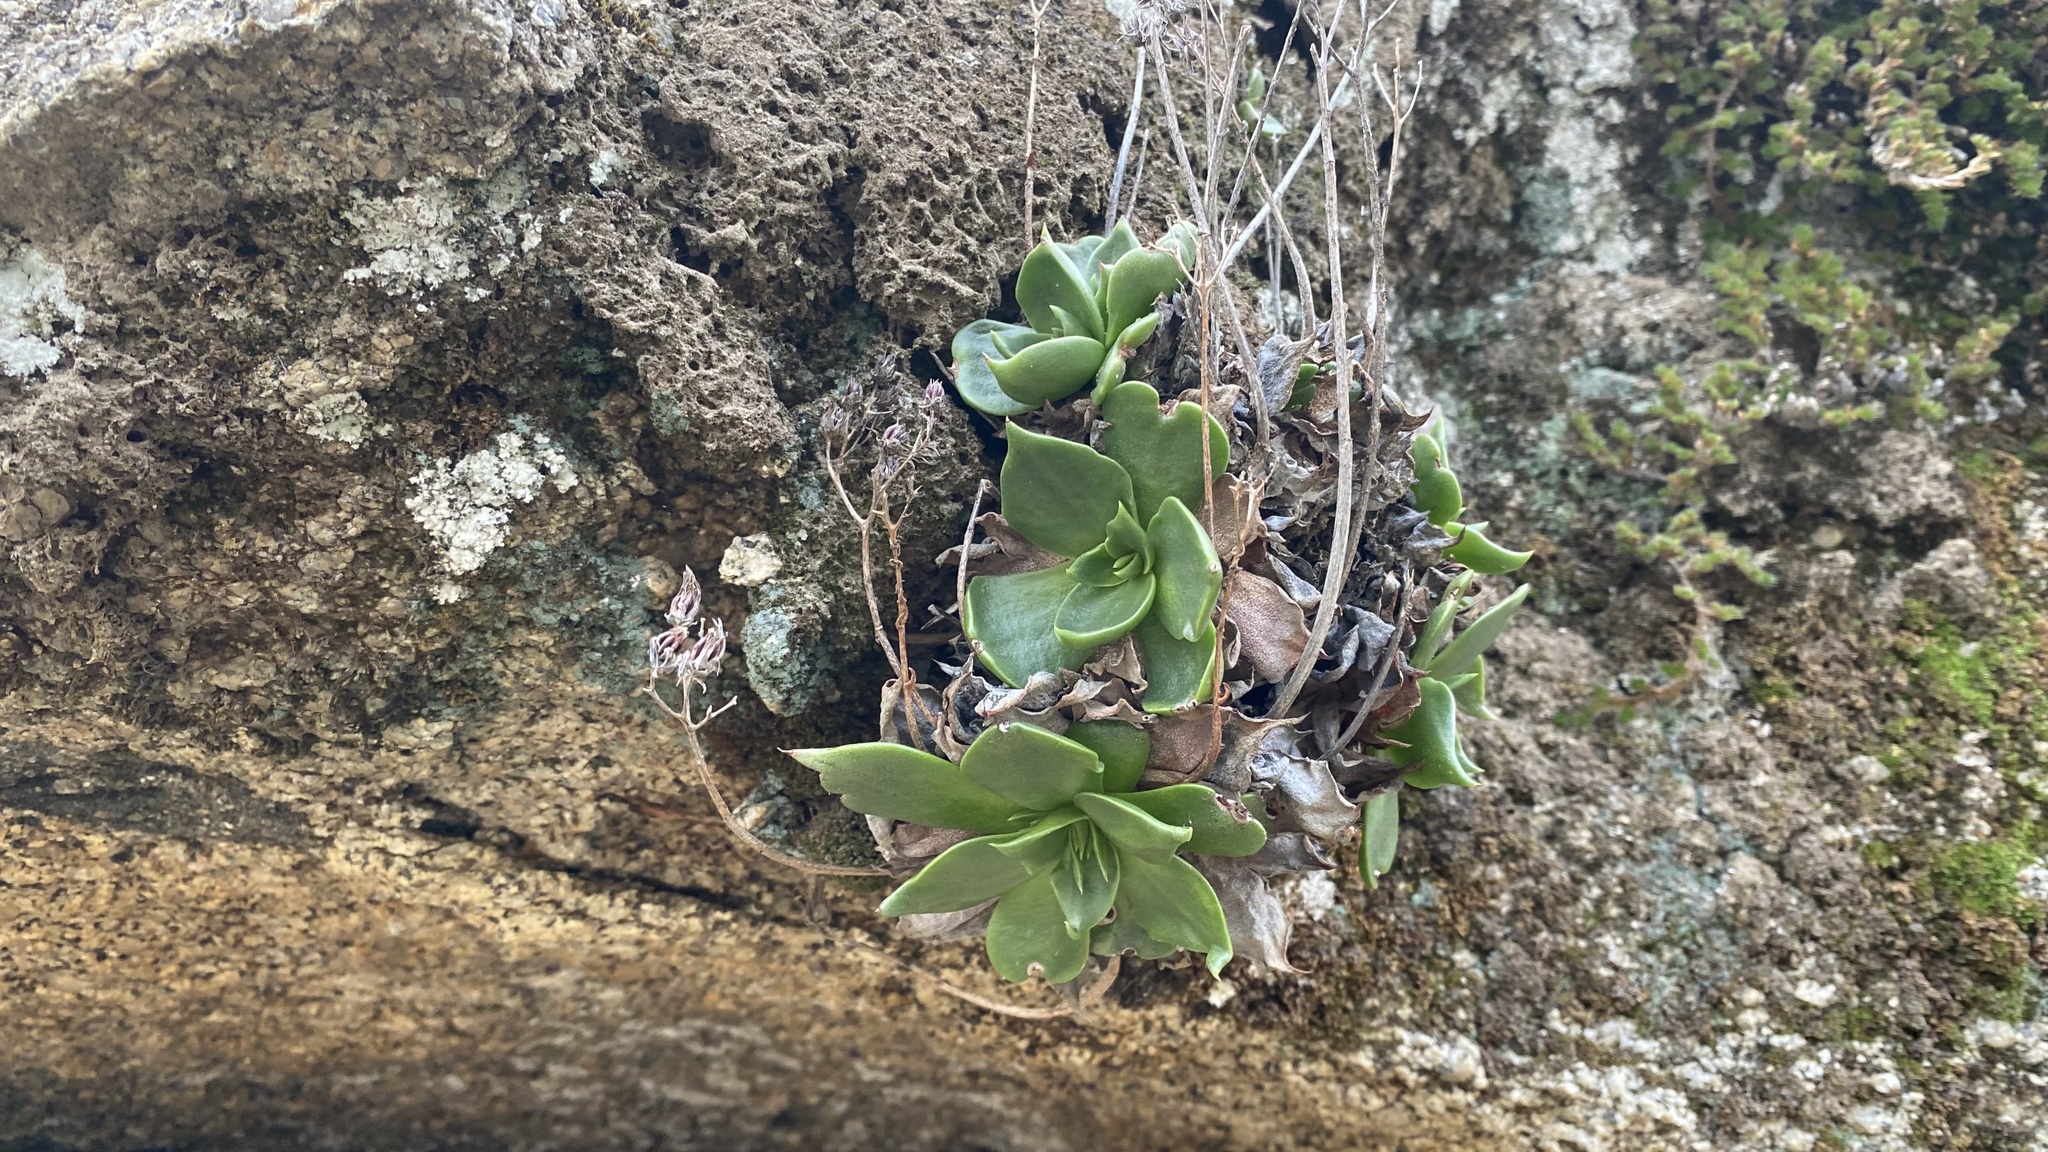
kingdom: Plantae
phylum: Tracheophyta
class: Magnoliopsida
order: Saxifragales
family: Crassulaceae
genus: Dudleya
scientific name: Dudleya cymosa
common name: Canyon dudleya
